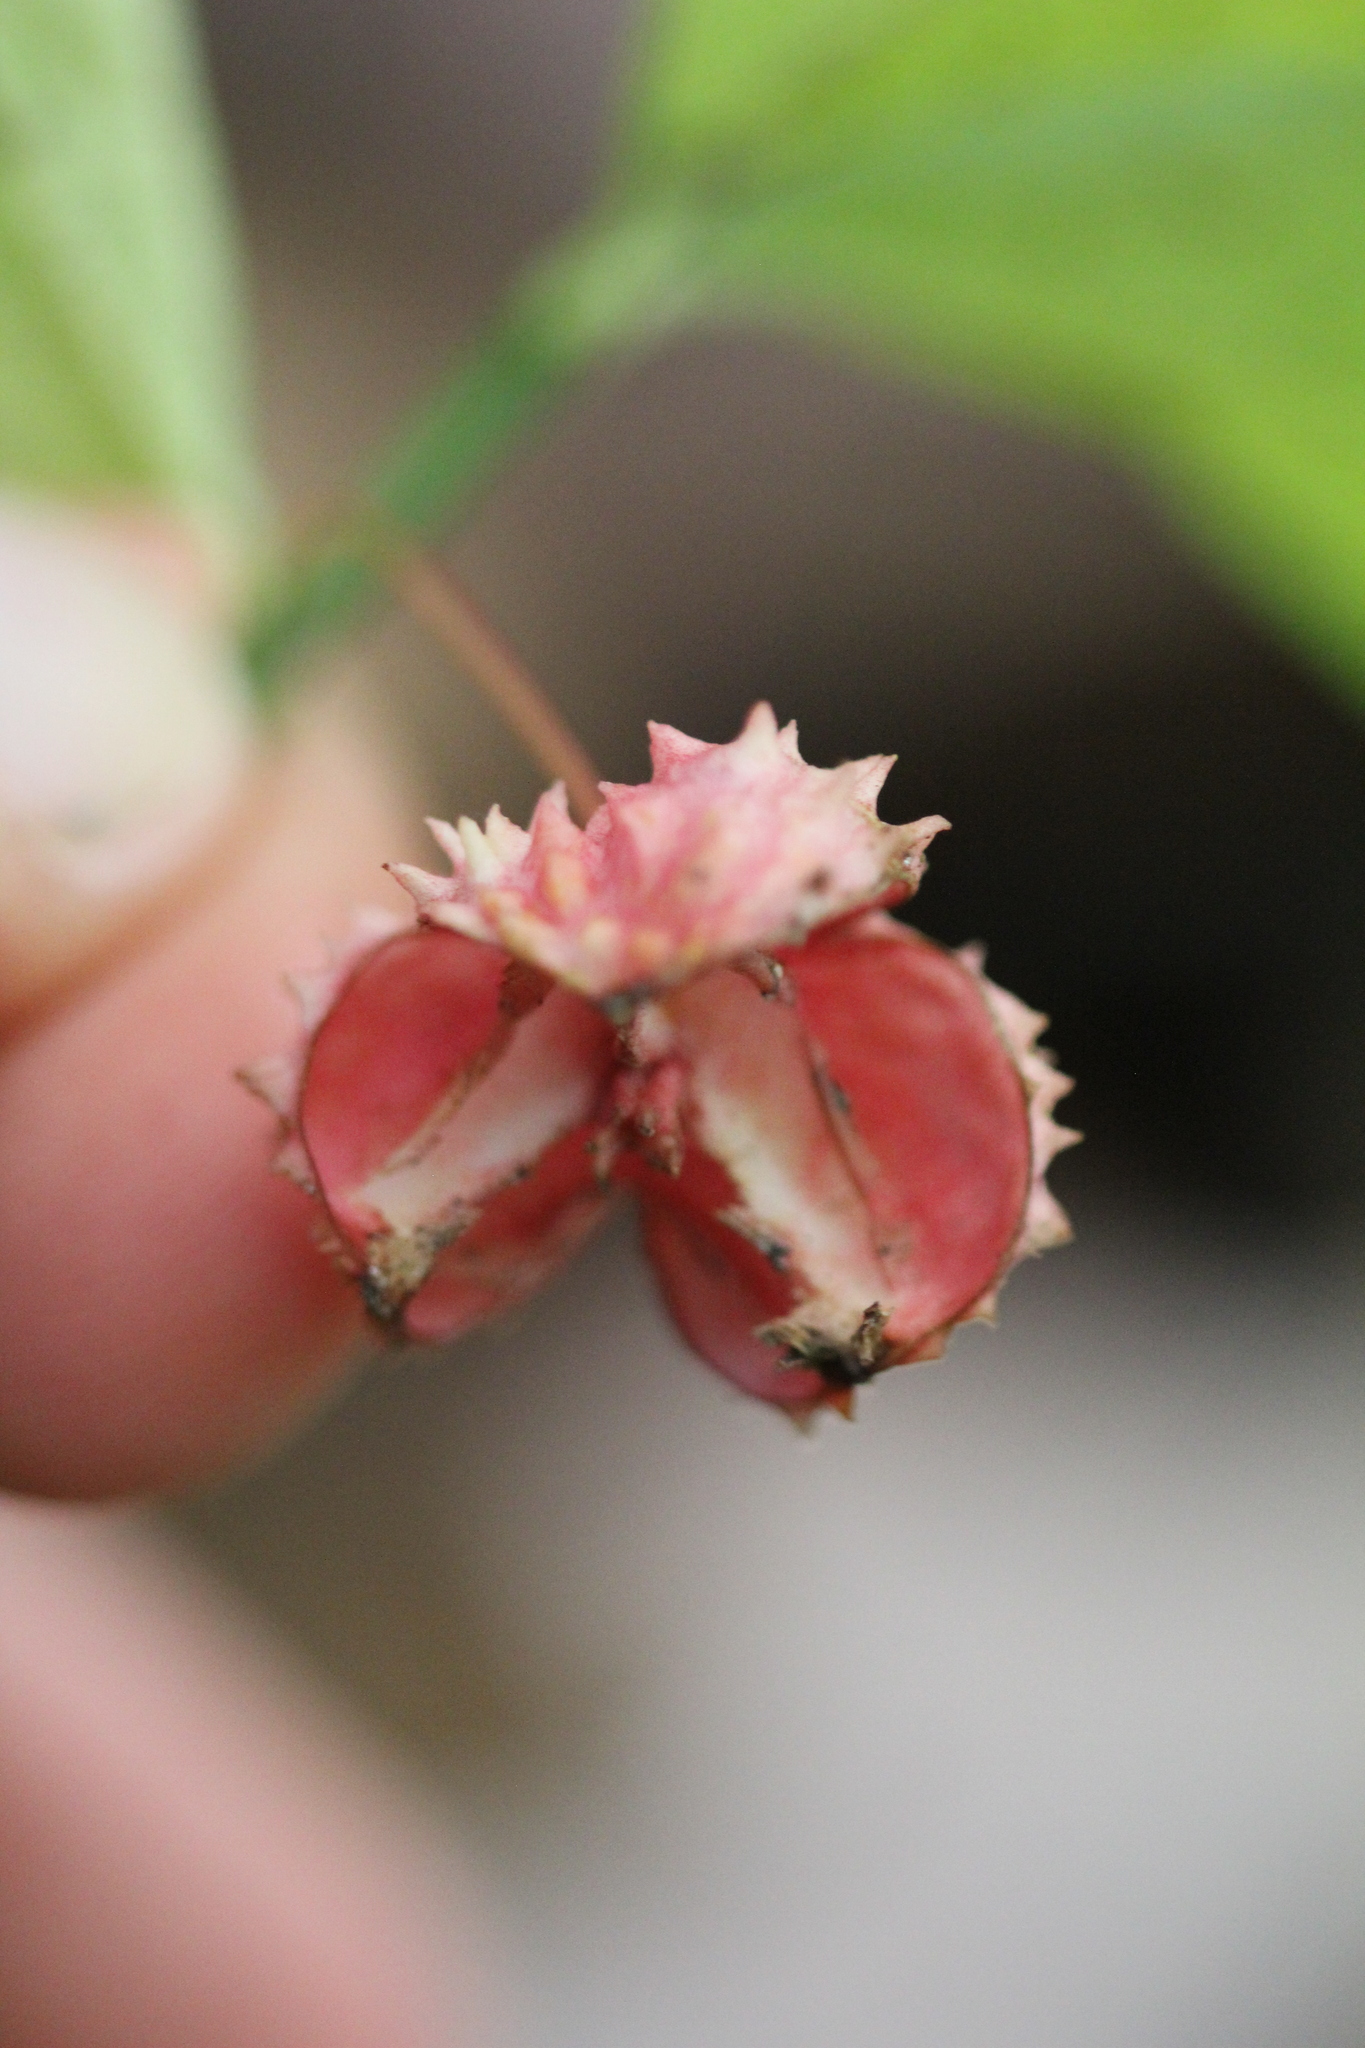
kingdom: Plantae
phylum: Tracheophyta
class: Magnoliopsida
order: Celastrales
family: Celastraceae
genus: Euonymus
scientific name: Euonymus obovatus
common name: Running strawberry-bush
